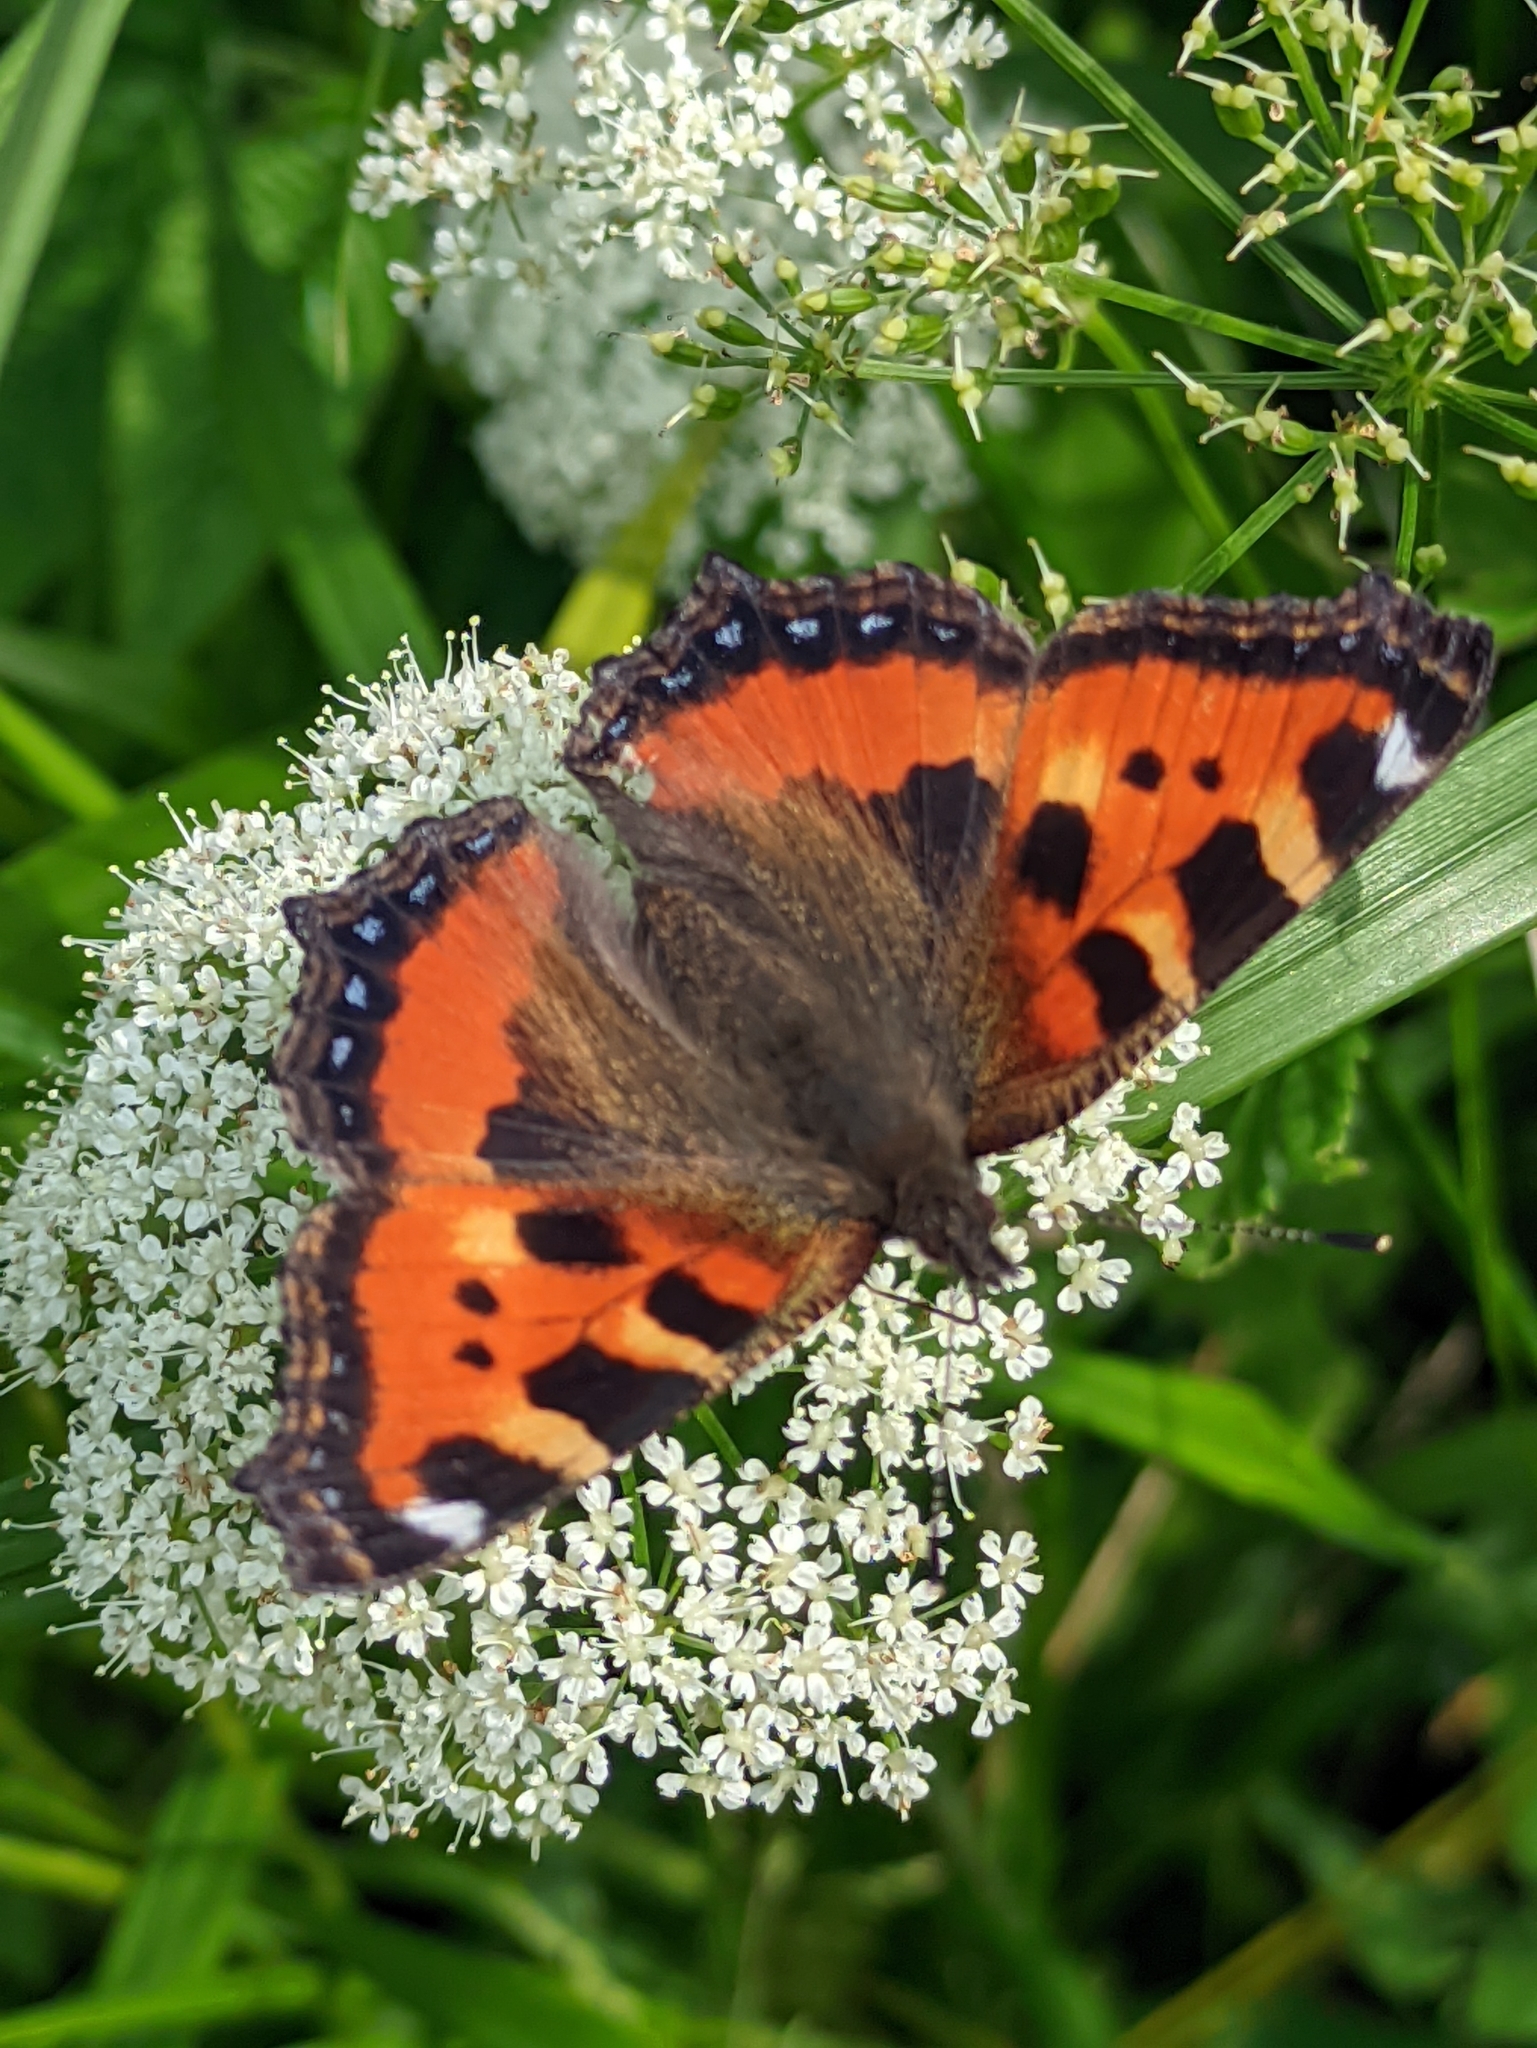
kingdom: Animalia
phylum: Arthropoda
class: Insecta
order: Lepidoptera
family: Nymphalidae
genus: Aglais
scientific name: Aglais urticae
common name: Small tortoiseshell
